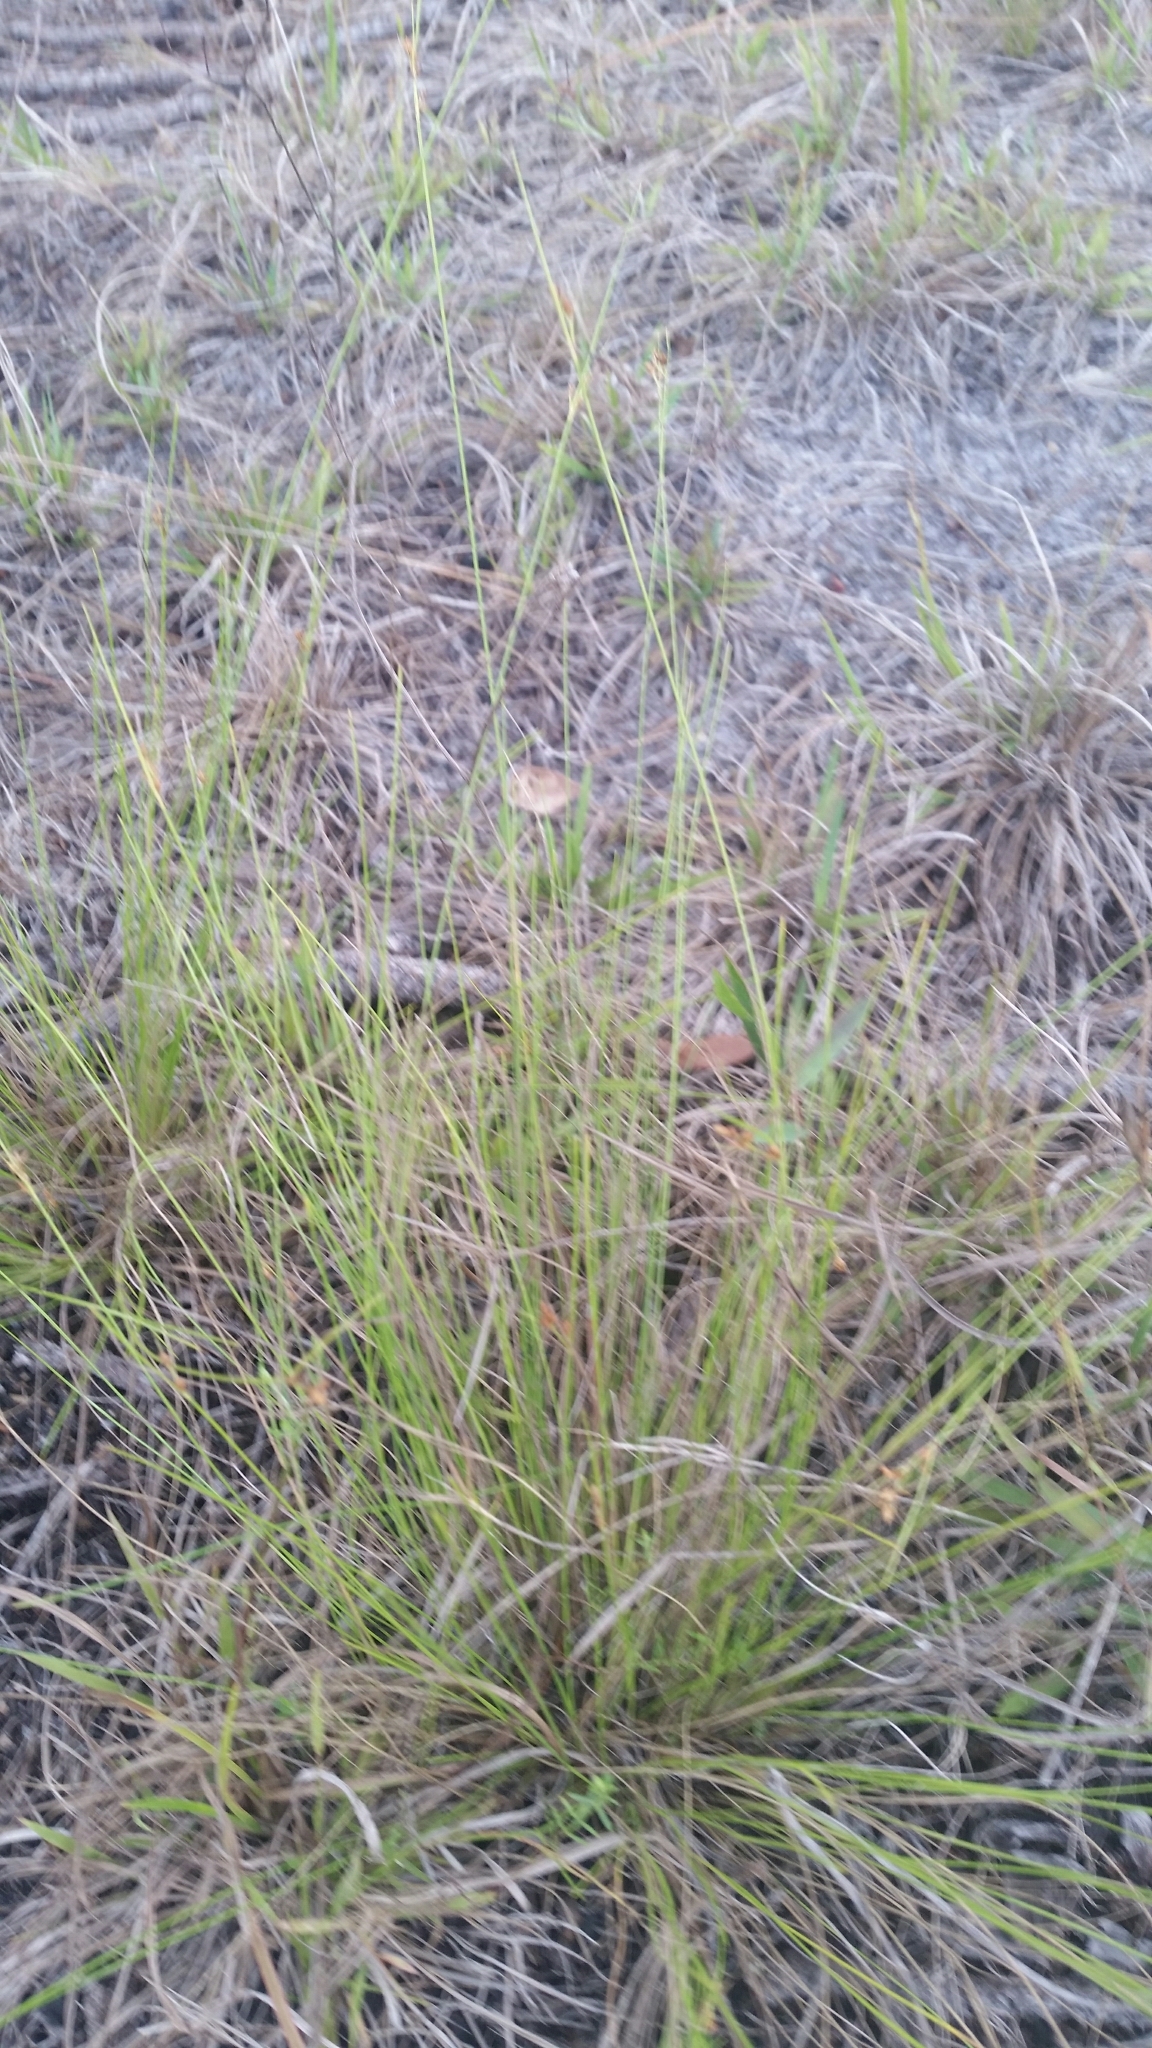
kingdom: Plantae
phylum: Tracheophyta
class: Liliopsida
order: Poales
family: Cyperaceae
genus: Rhynchospora
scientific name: Rhynchospora plumosa
